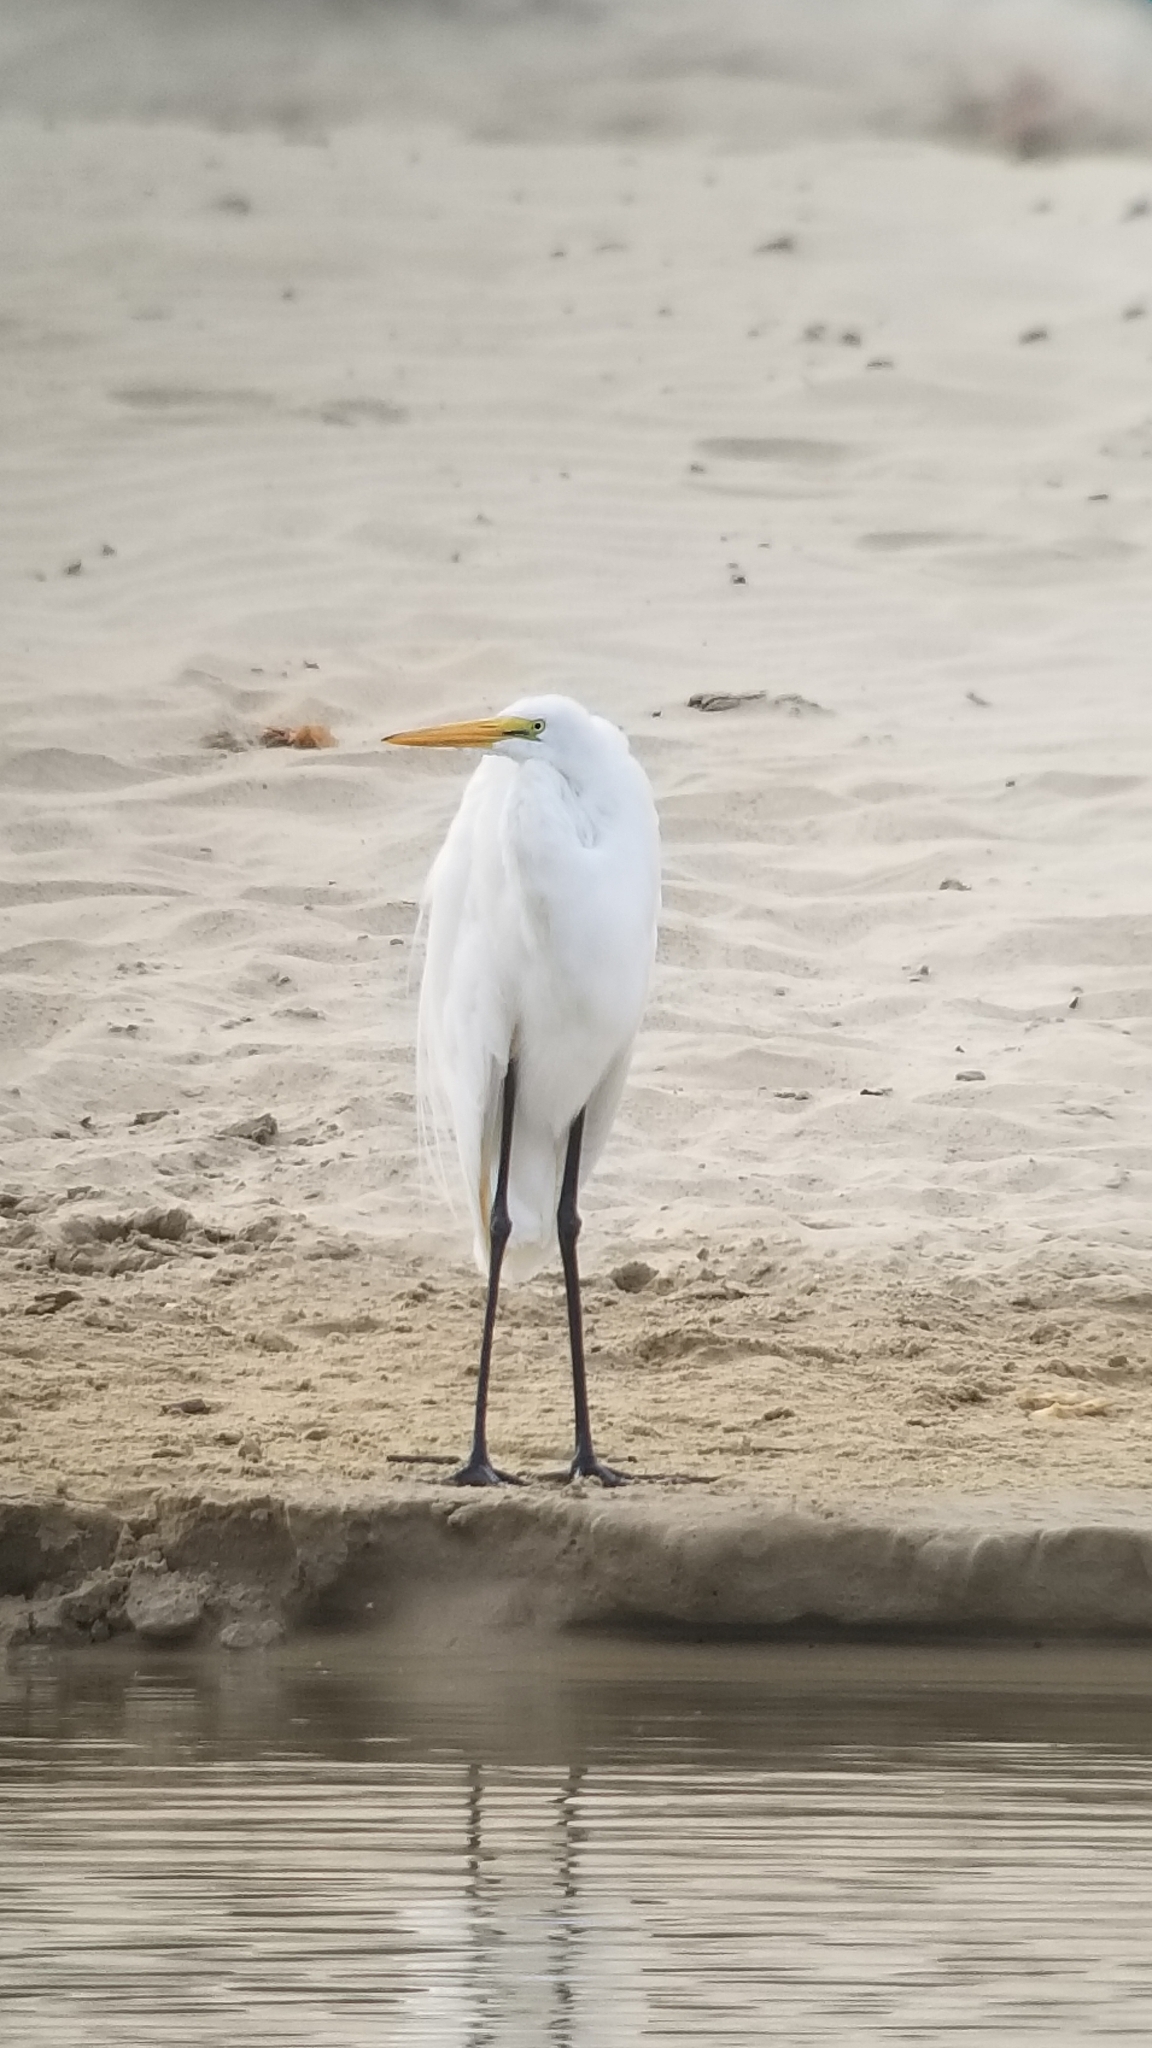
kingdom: Animalia
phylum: Chordata
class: Aves
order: Pelecaniformes
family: Ardeidae
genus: Ardea
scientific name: Ardea alba
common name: Great egret
